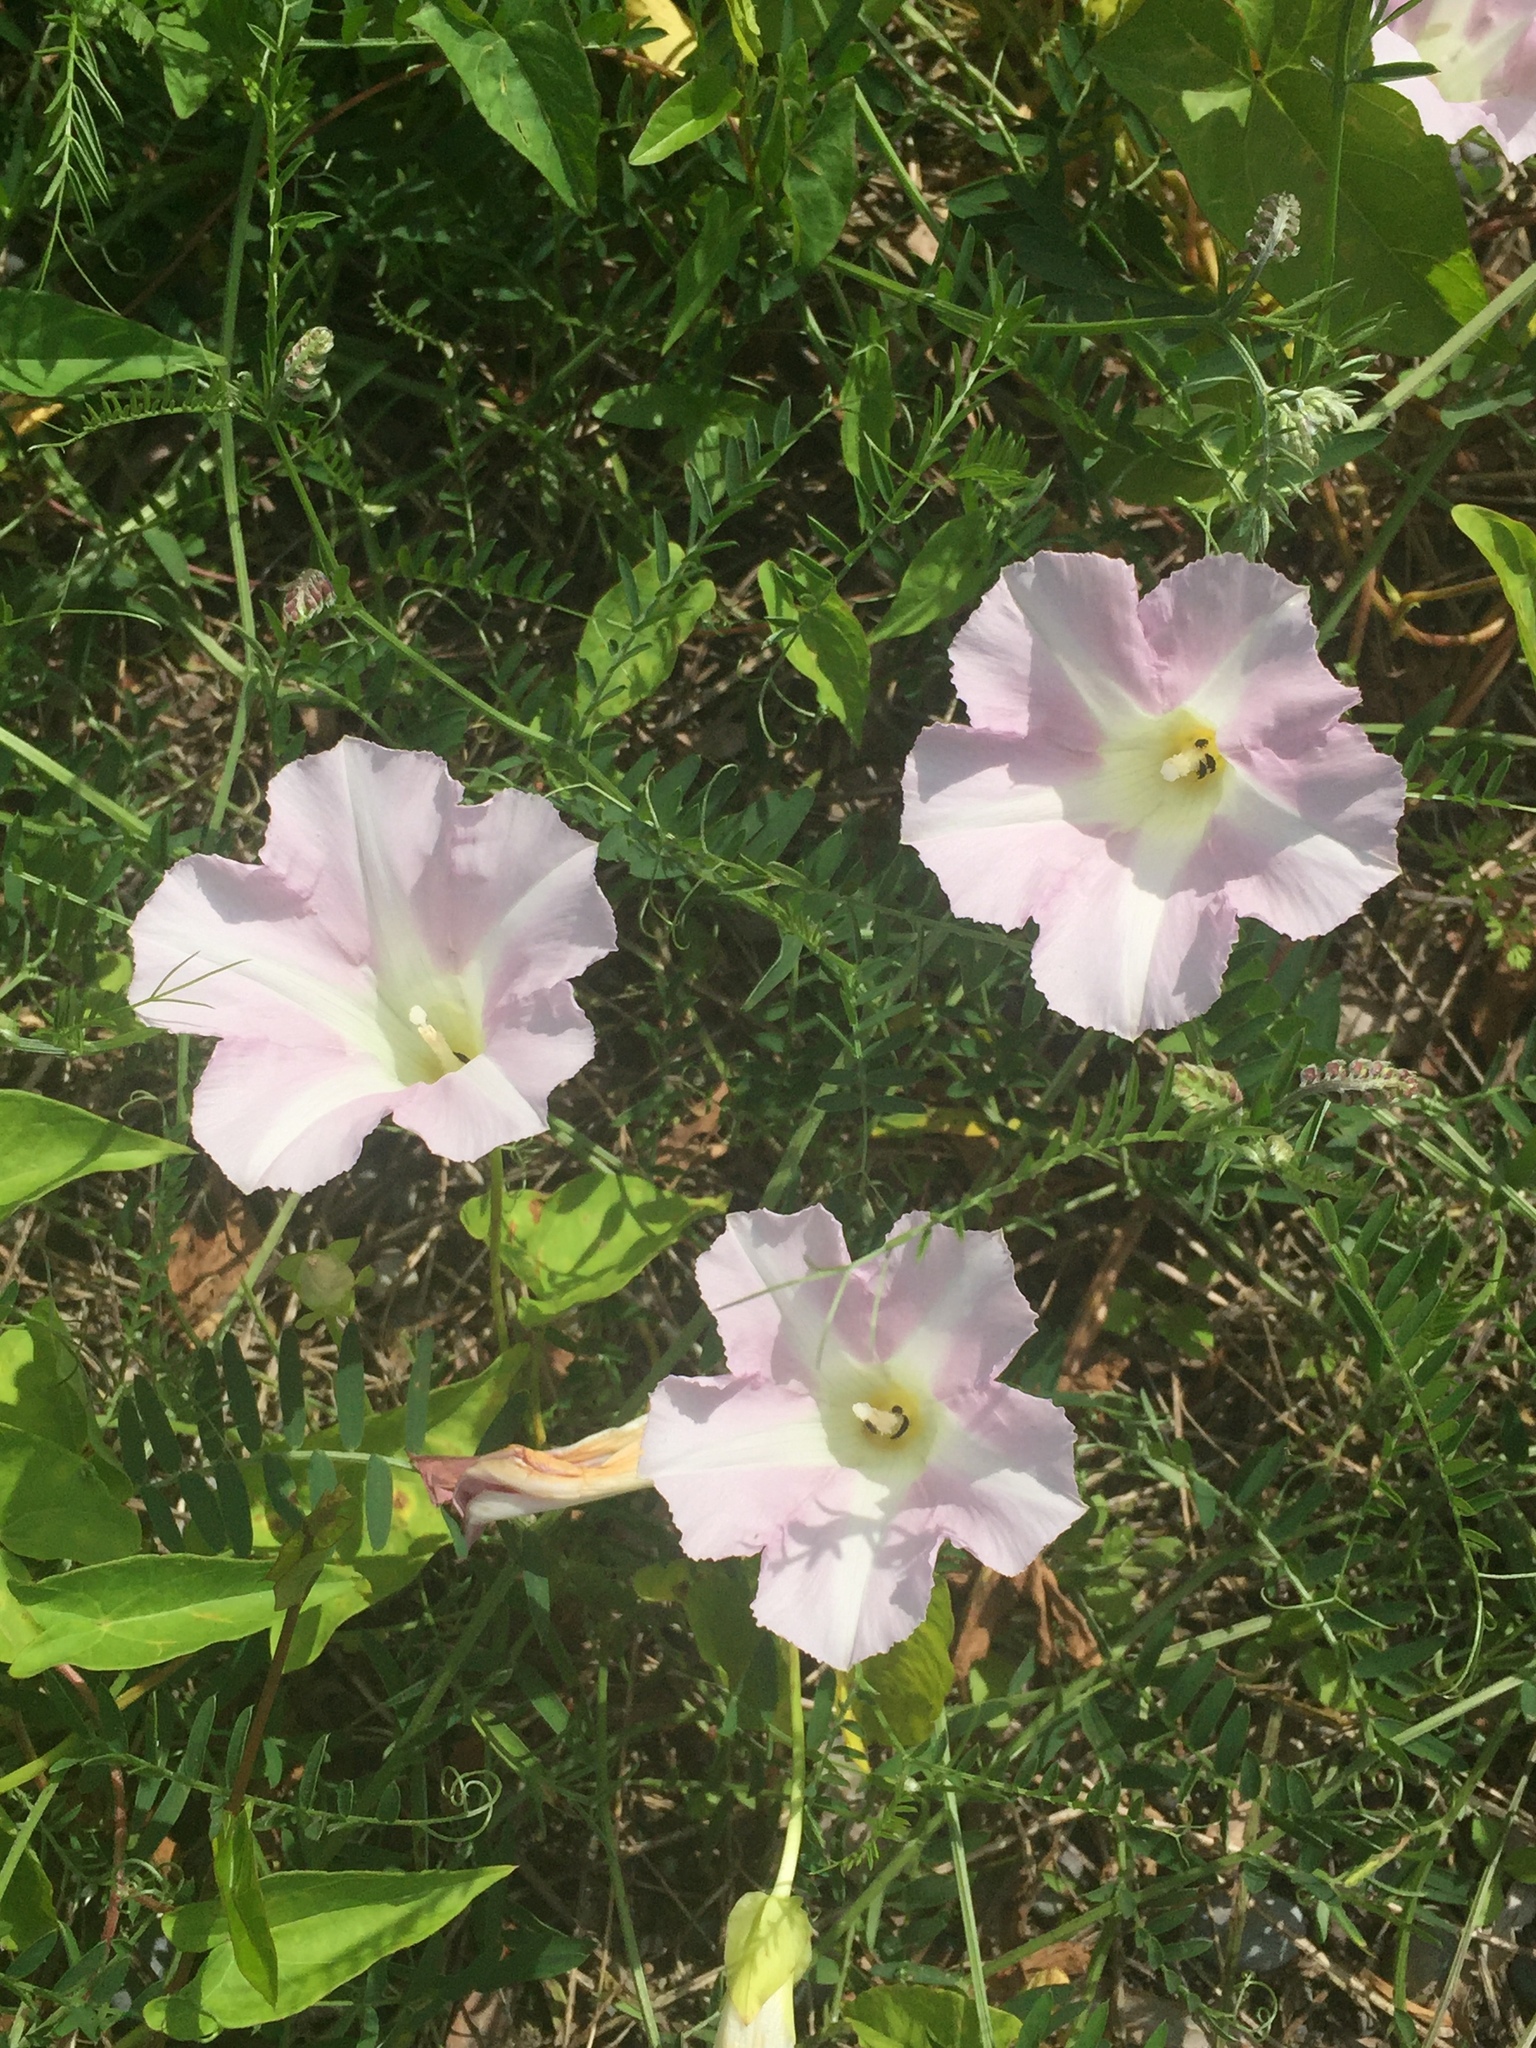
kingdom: Plantae
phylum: Tracheophyta
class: Magnoliopsida
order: Solanales
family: Convolvulaceae
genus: Calystegia
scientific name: Calystegia sepium
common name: Hedge bindweed
